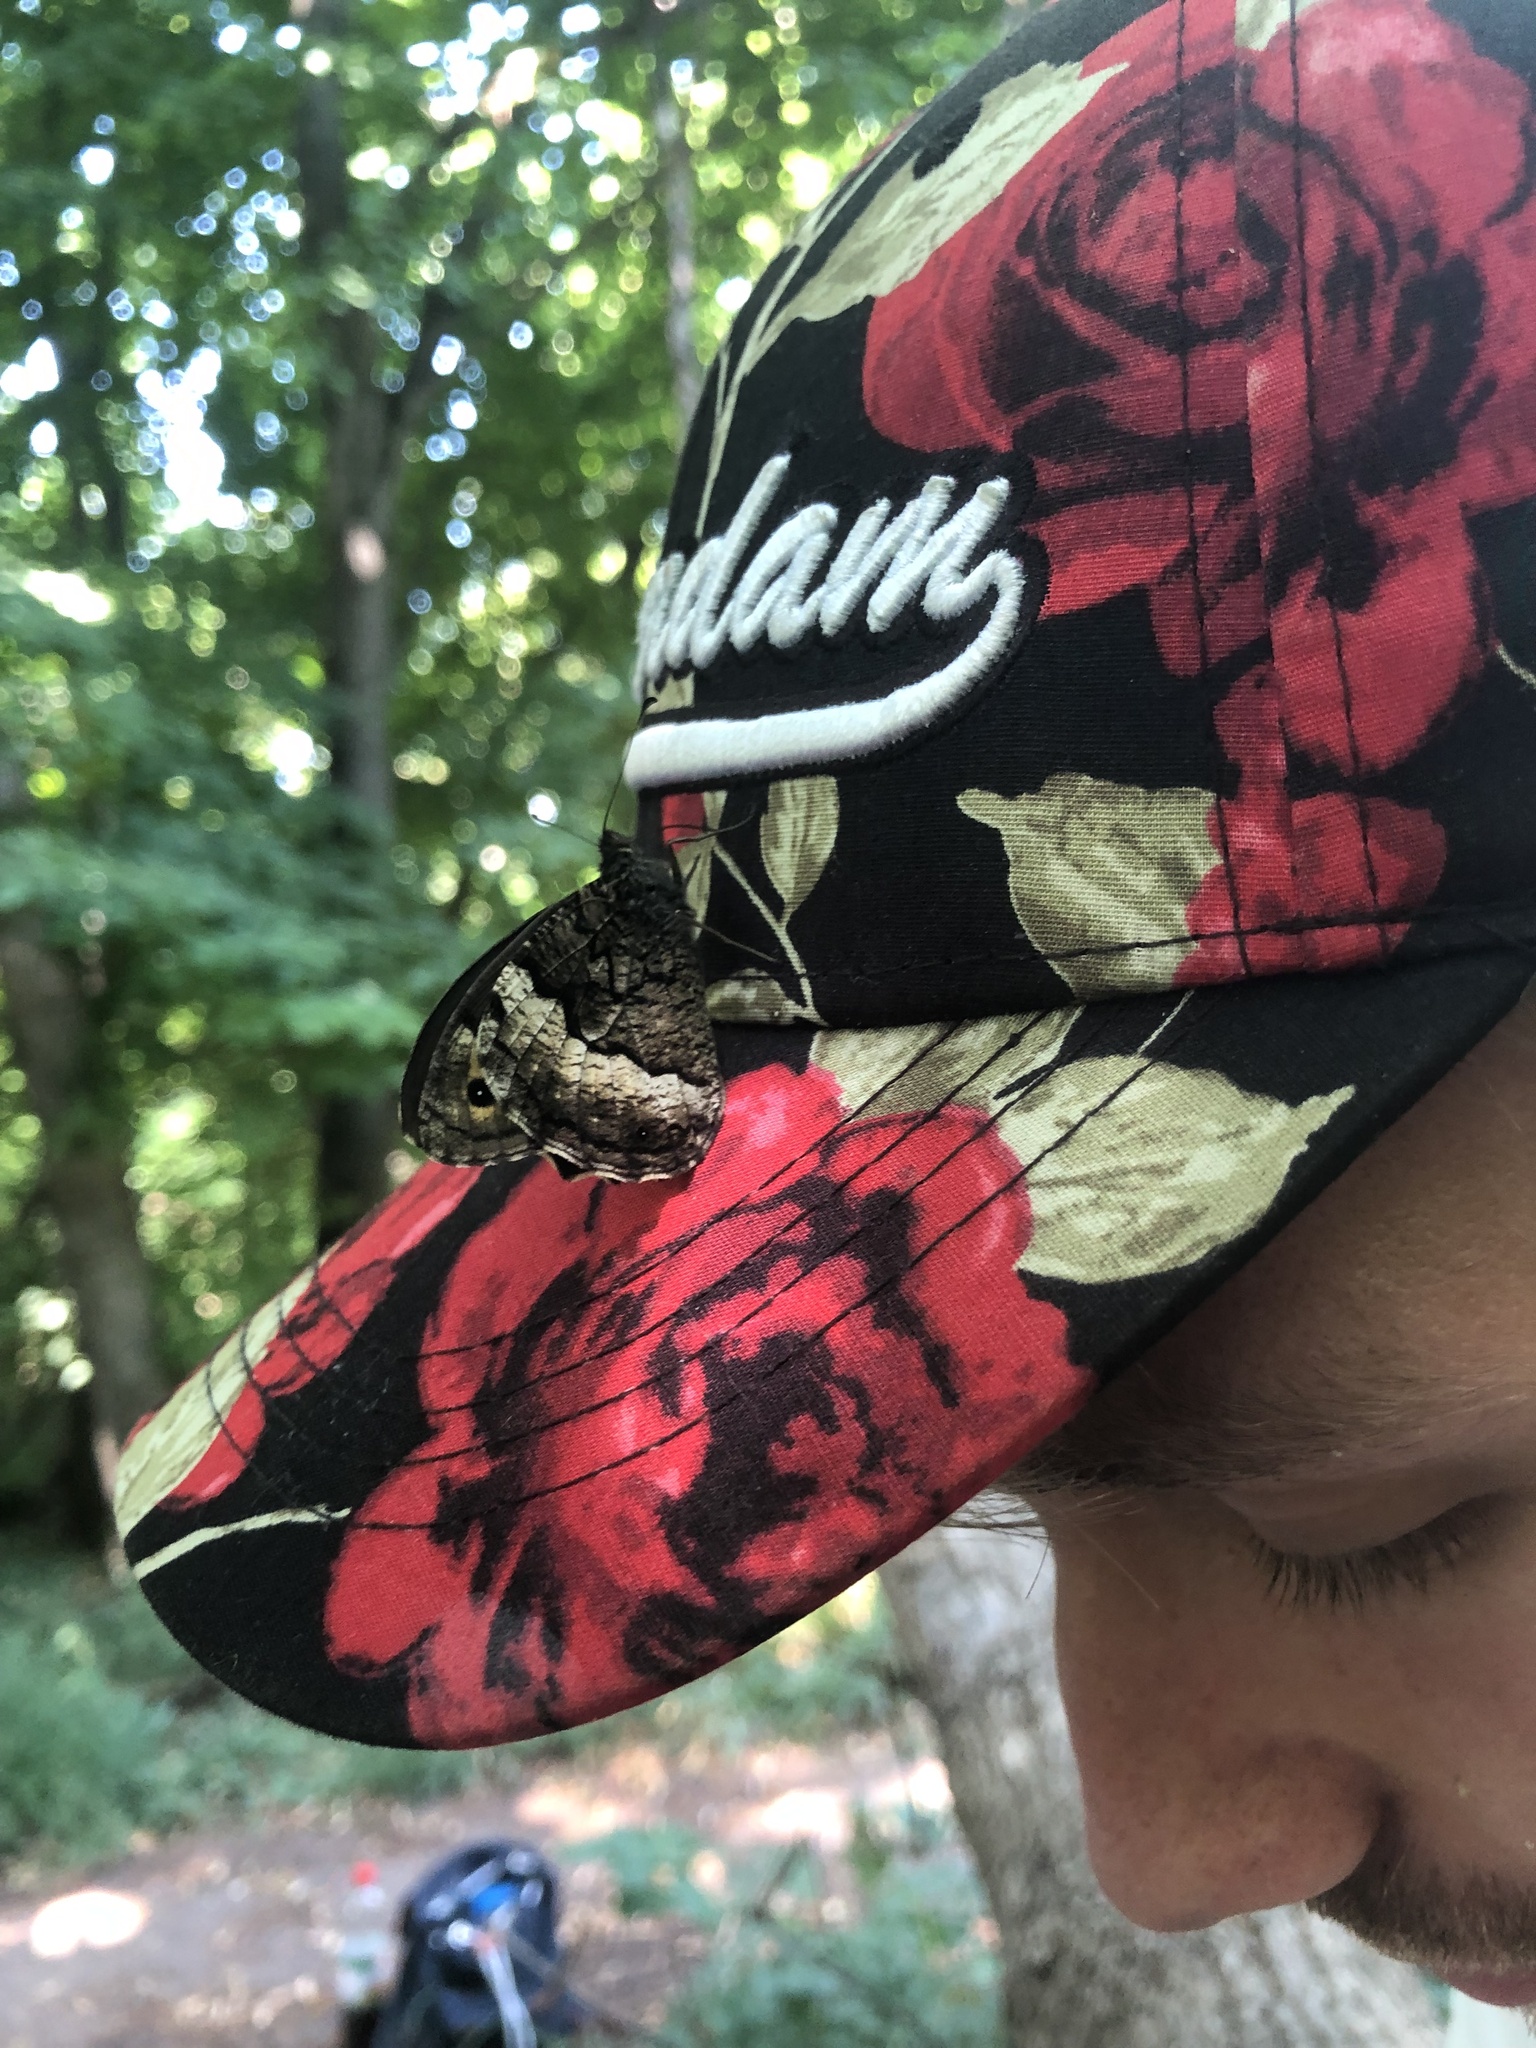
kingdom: Animalia
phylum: Arthropoda
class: Insecta
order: Lepidoptera
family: Nymphalidae
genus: Hipparchia
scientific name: Hipparchia fagi
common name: Woodland grayling
